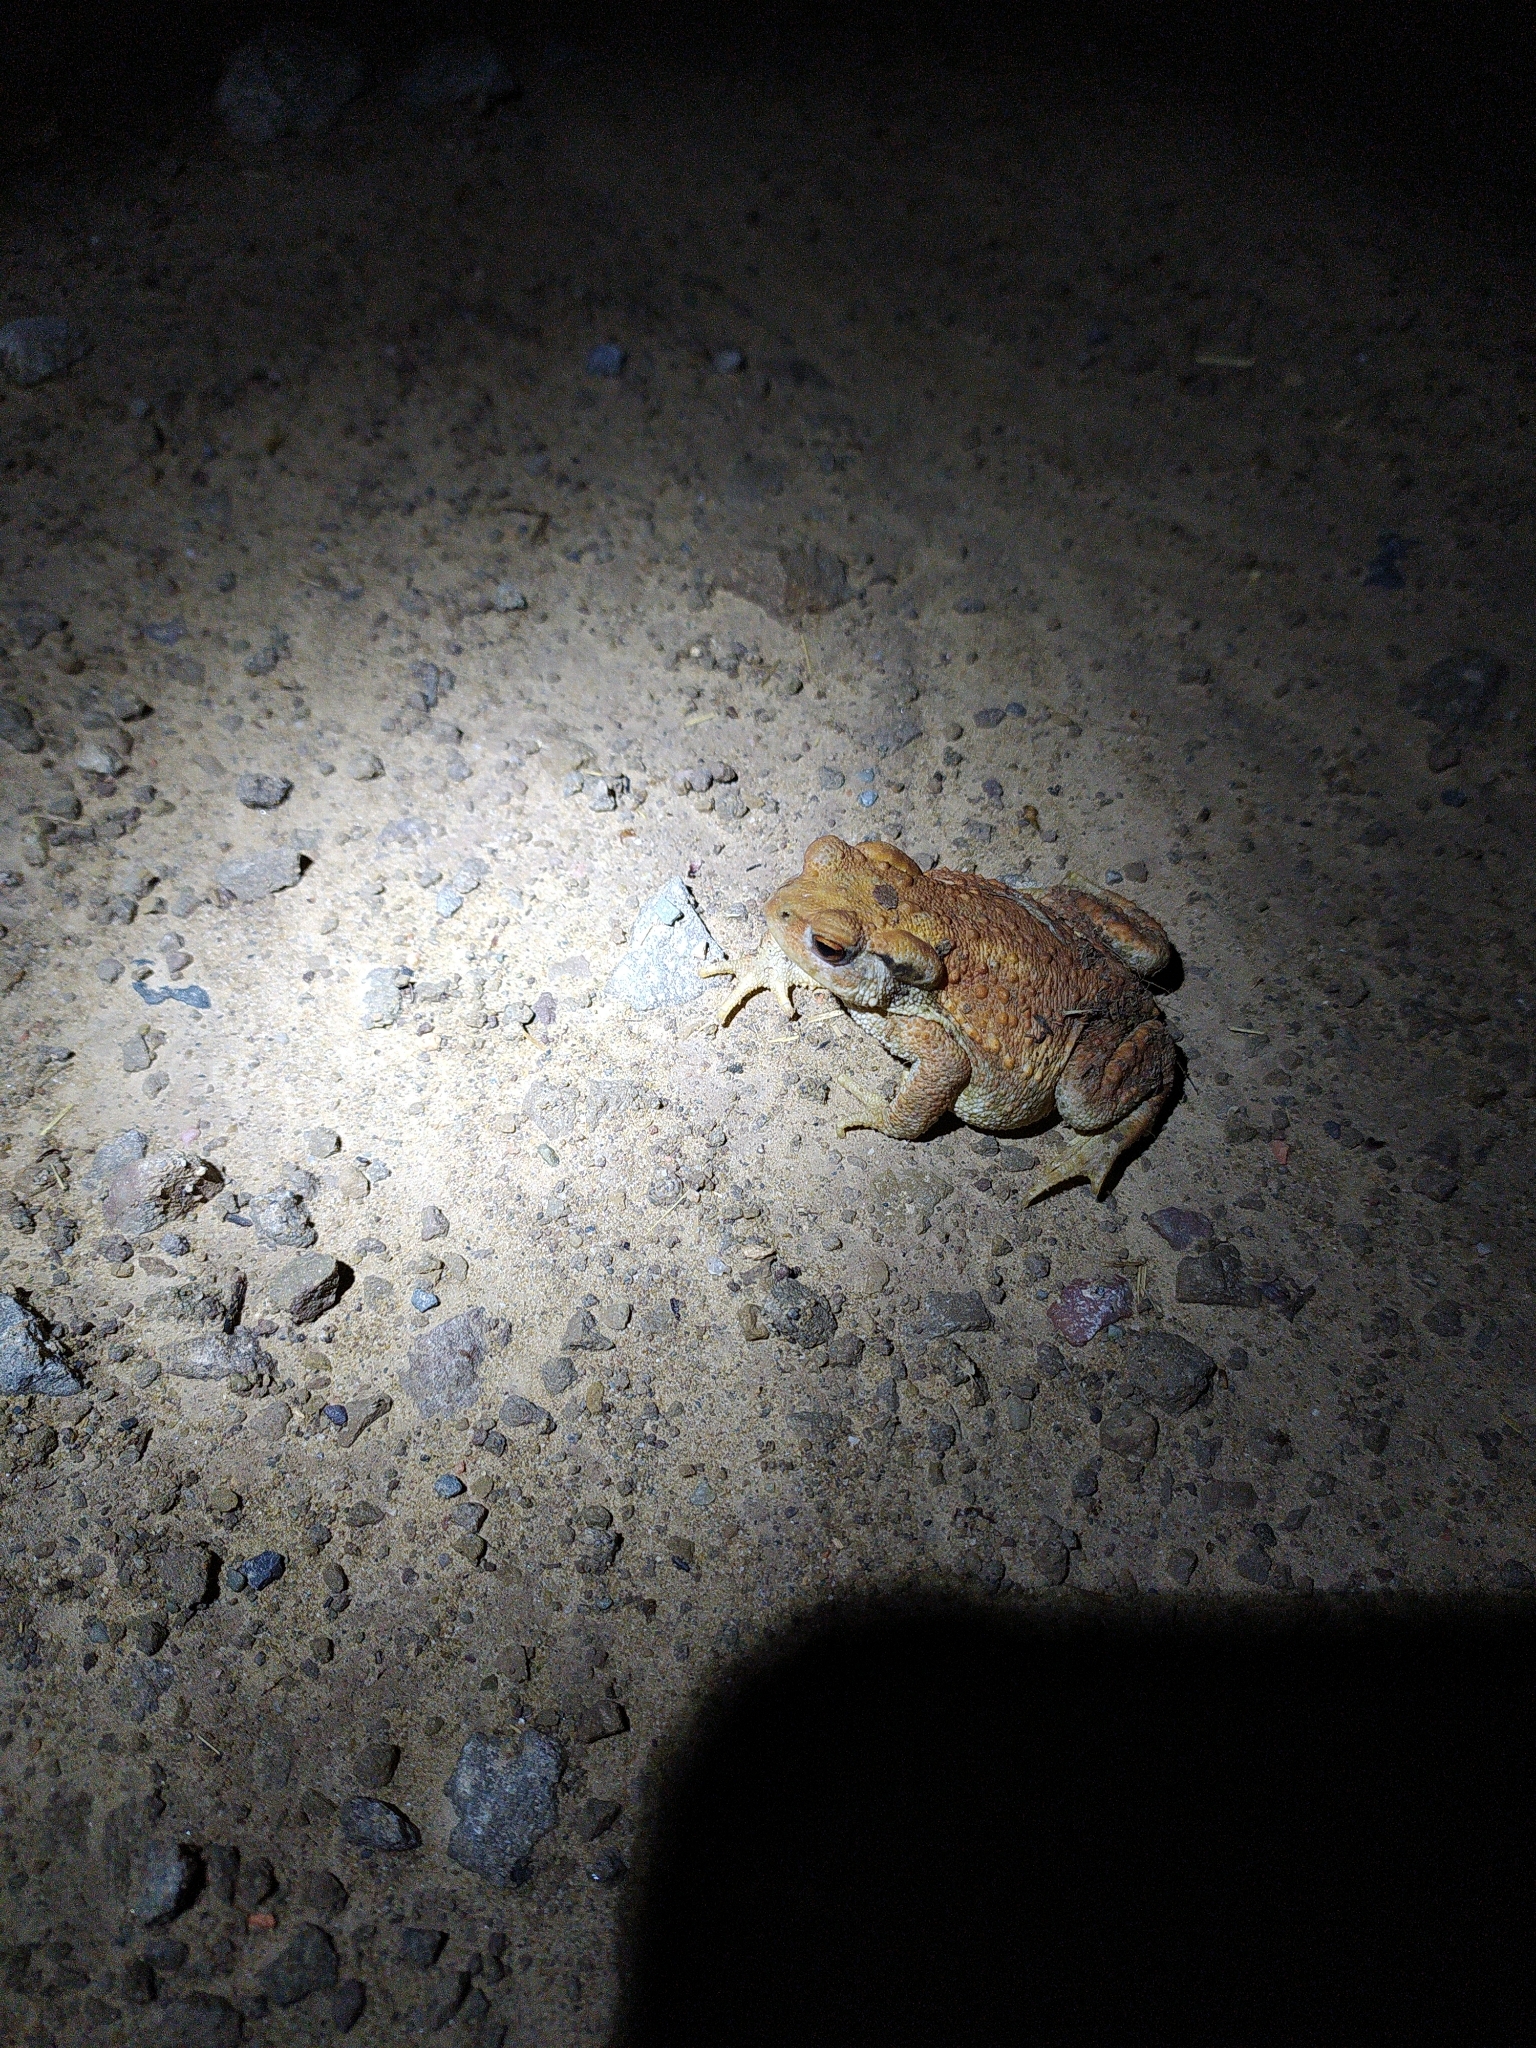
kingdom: Animalia
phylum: Chordata
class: Amphibia
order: Anura
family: Bufonidae
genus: Bufo
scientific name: Bufo spinosus
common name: Western common toad
